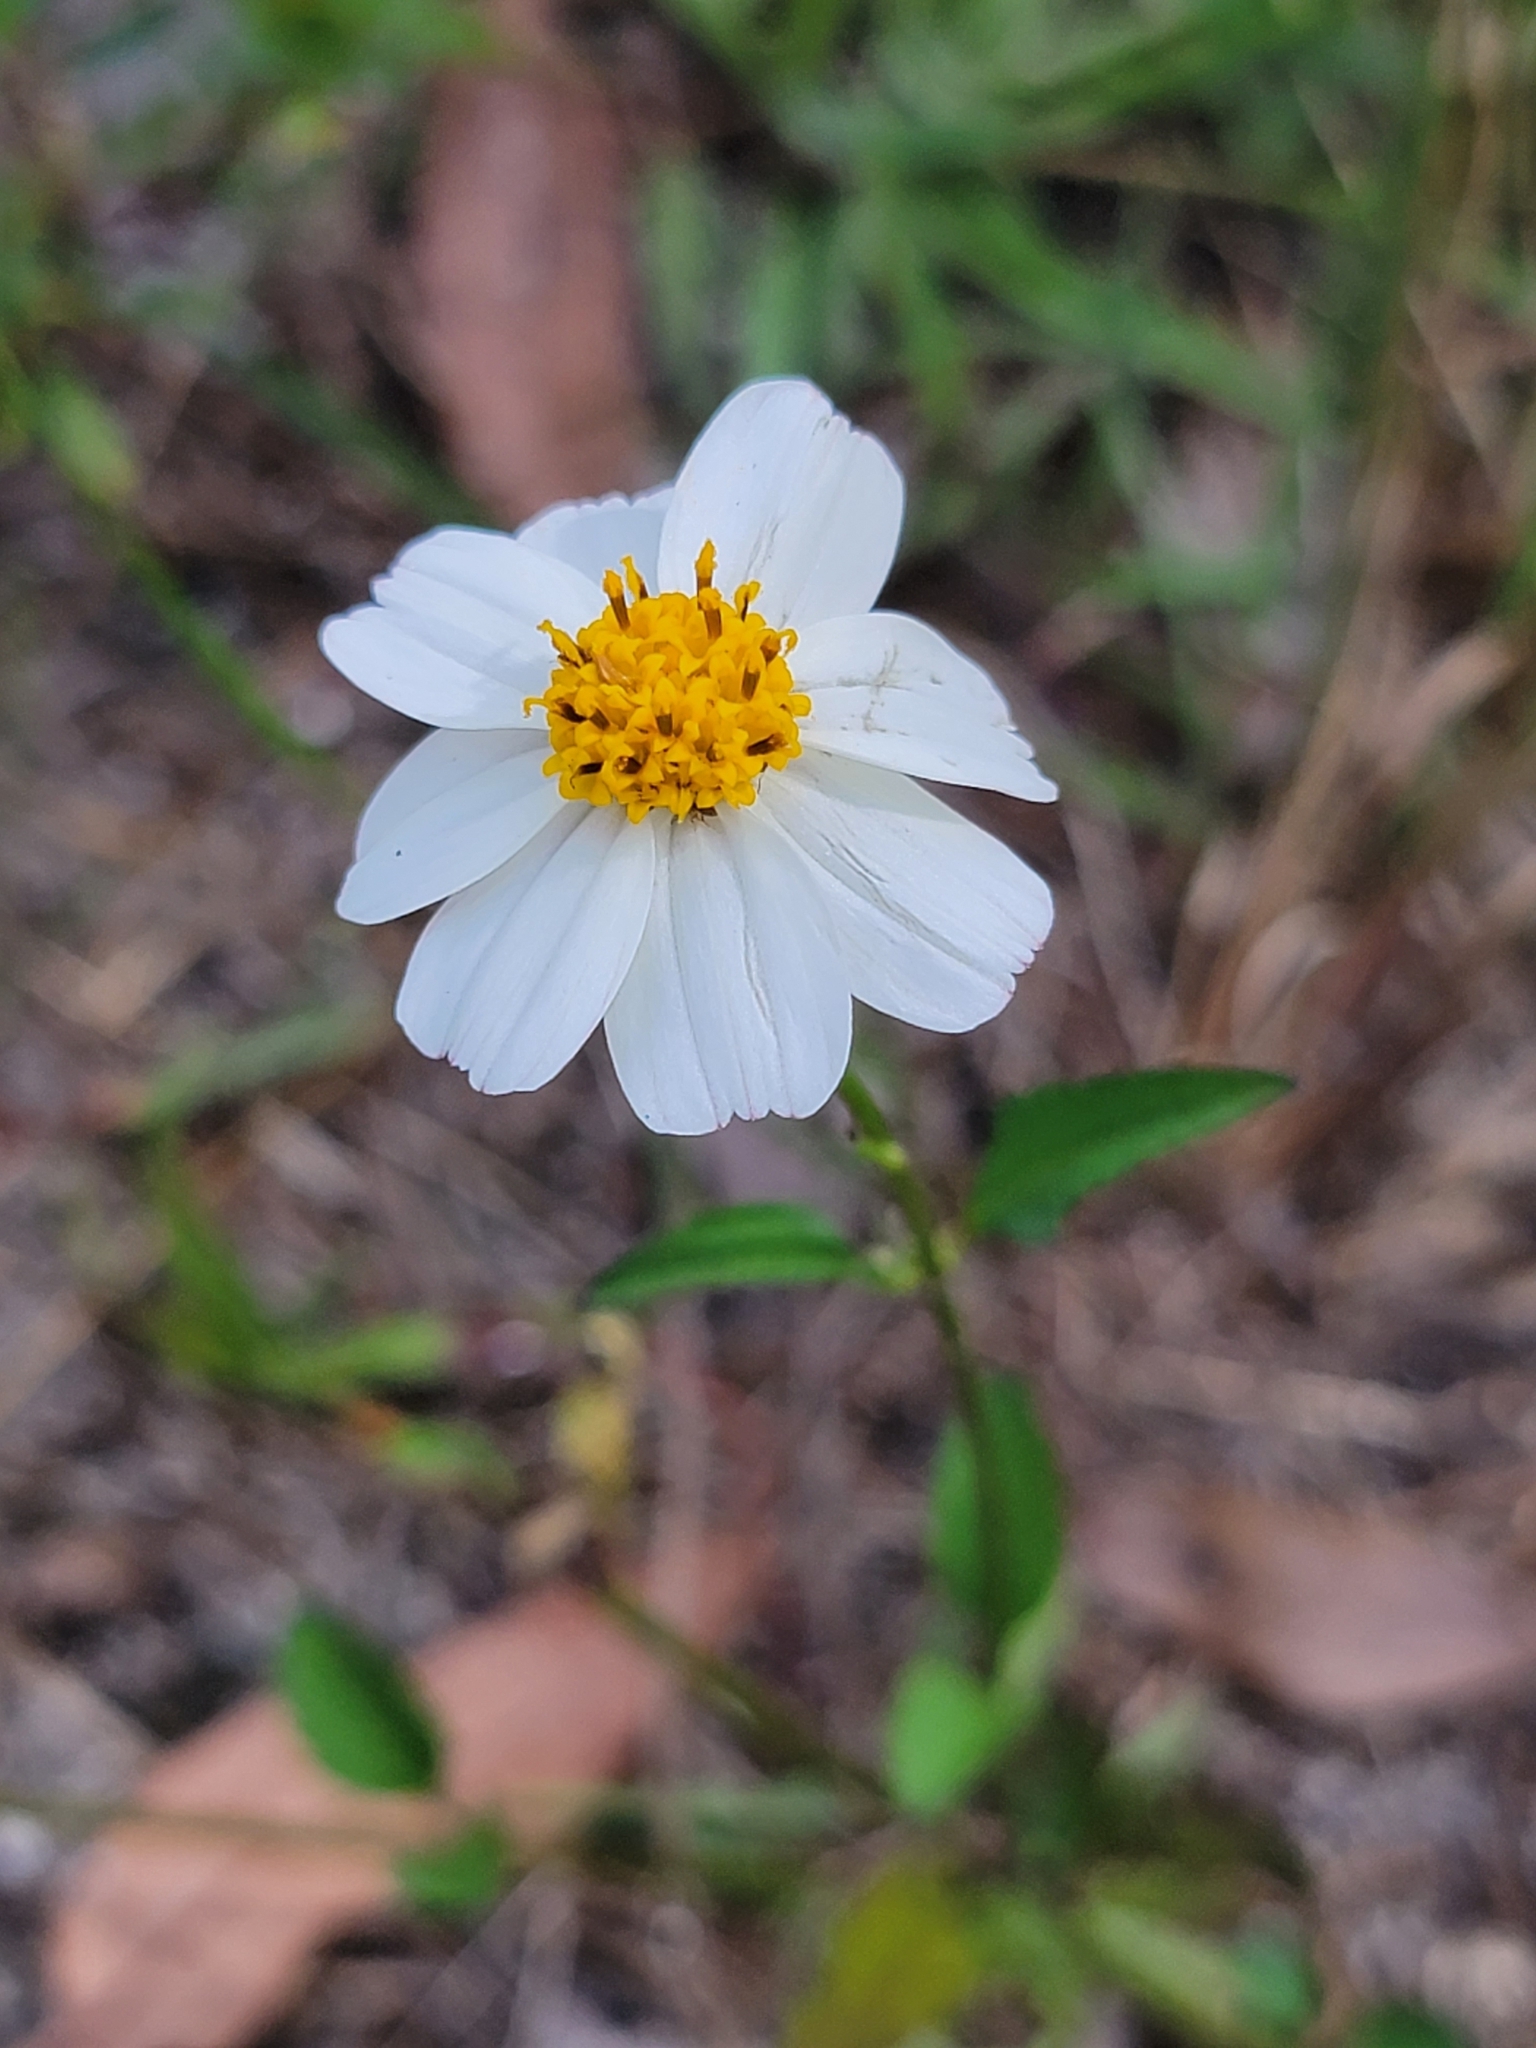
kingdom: Plantae
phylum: Tracheophyta
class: Magnoliopsida
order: Asterales
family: Asteraceae
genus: Bidens
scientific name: Bidens alba
